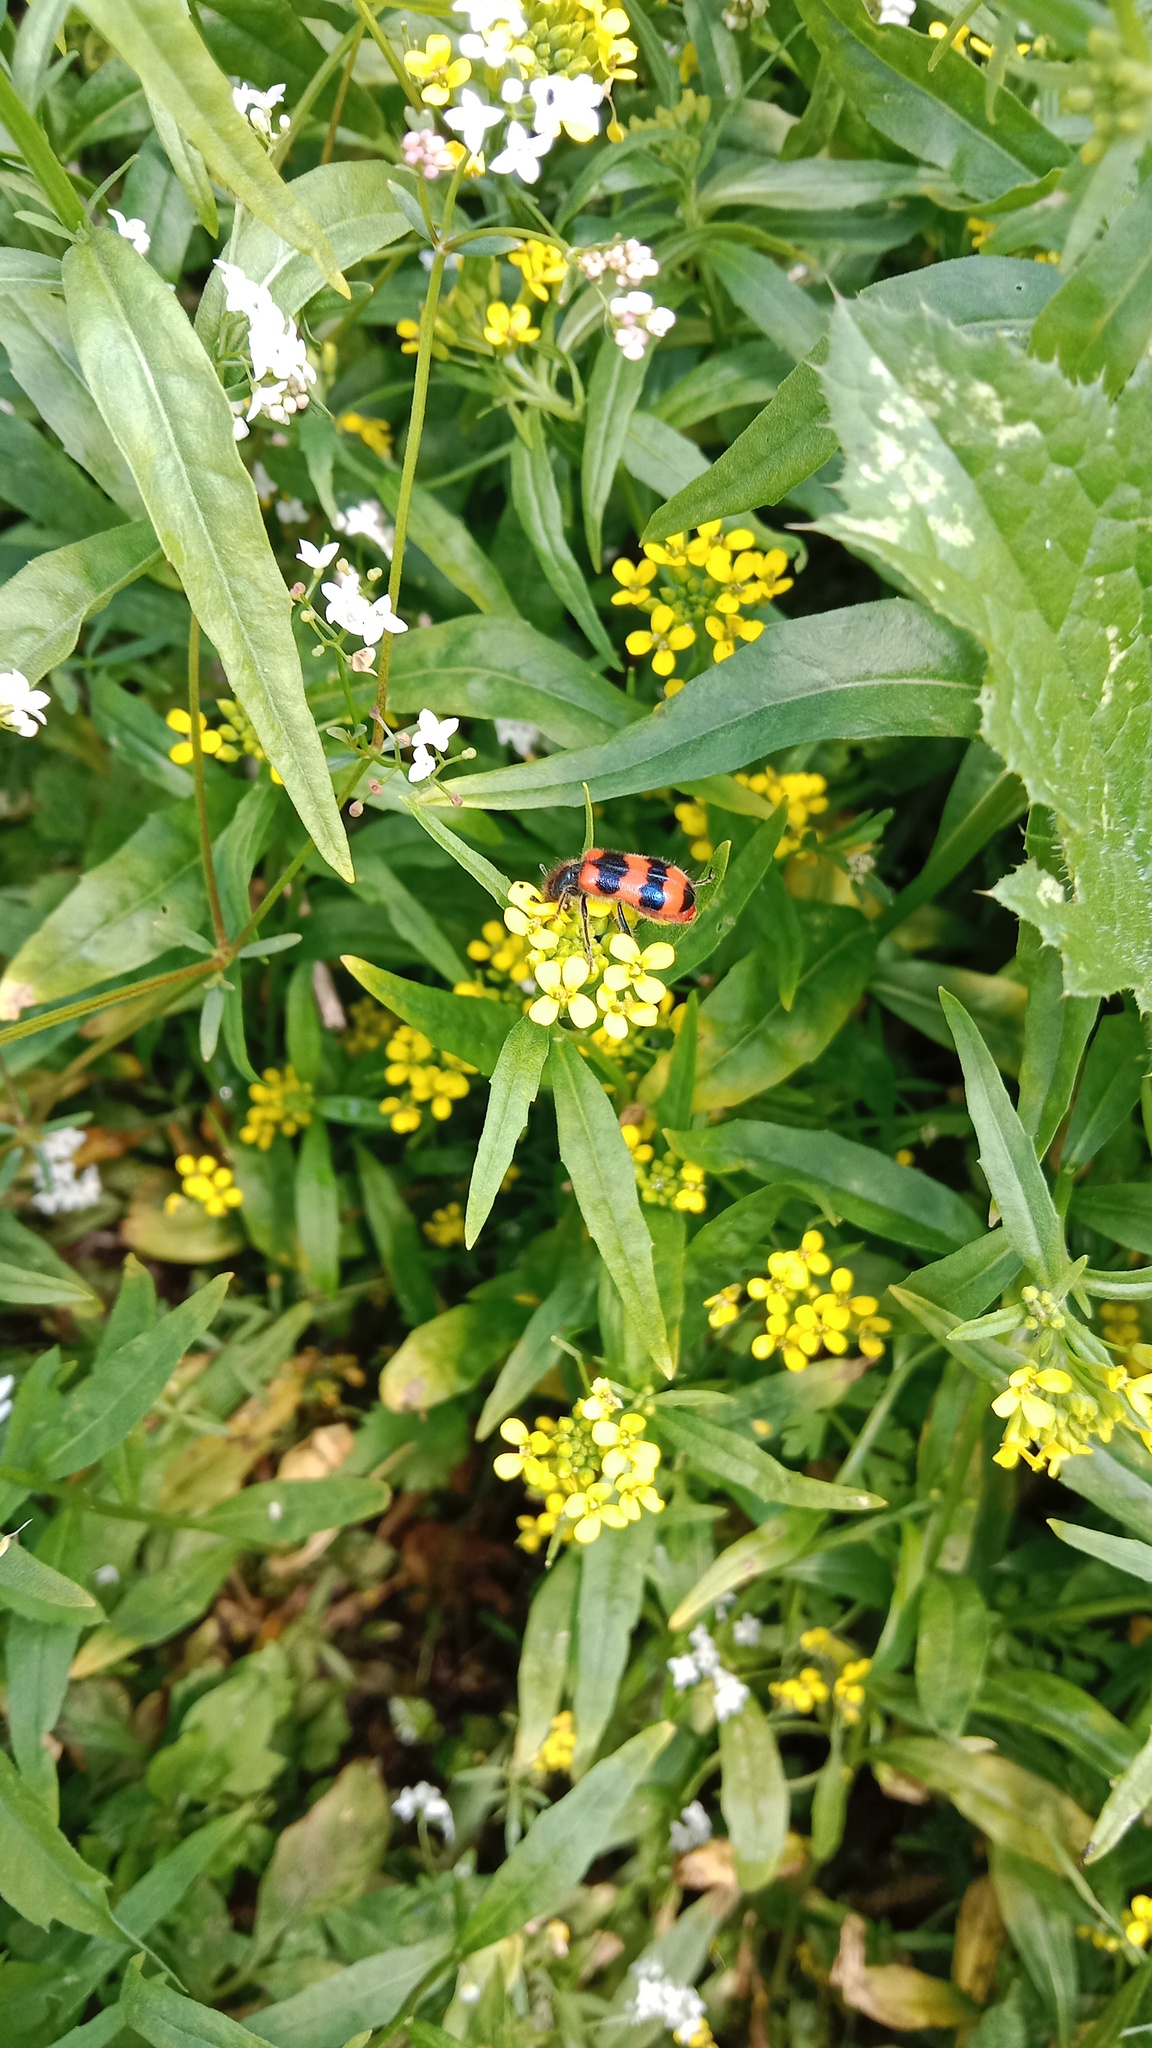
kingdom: Animalia
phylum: Arthropoda
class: Insecta
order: Coleoptera
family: Cleridae
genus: Trichodes
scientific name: Trichodes apiarius
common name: Bee-eating beetle
